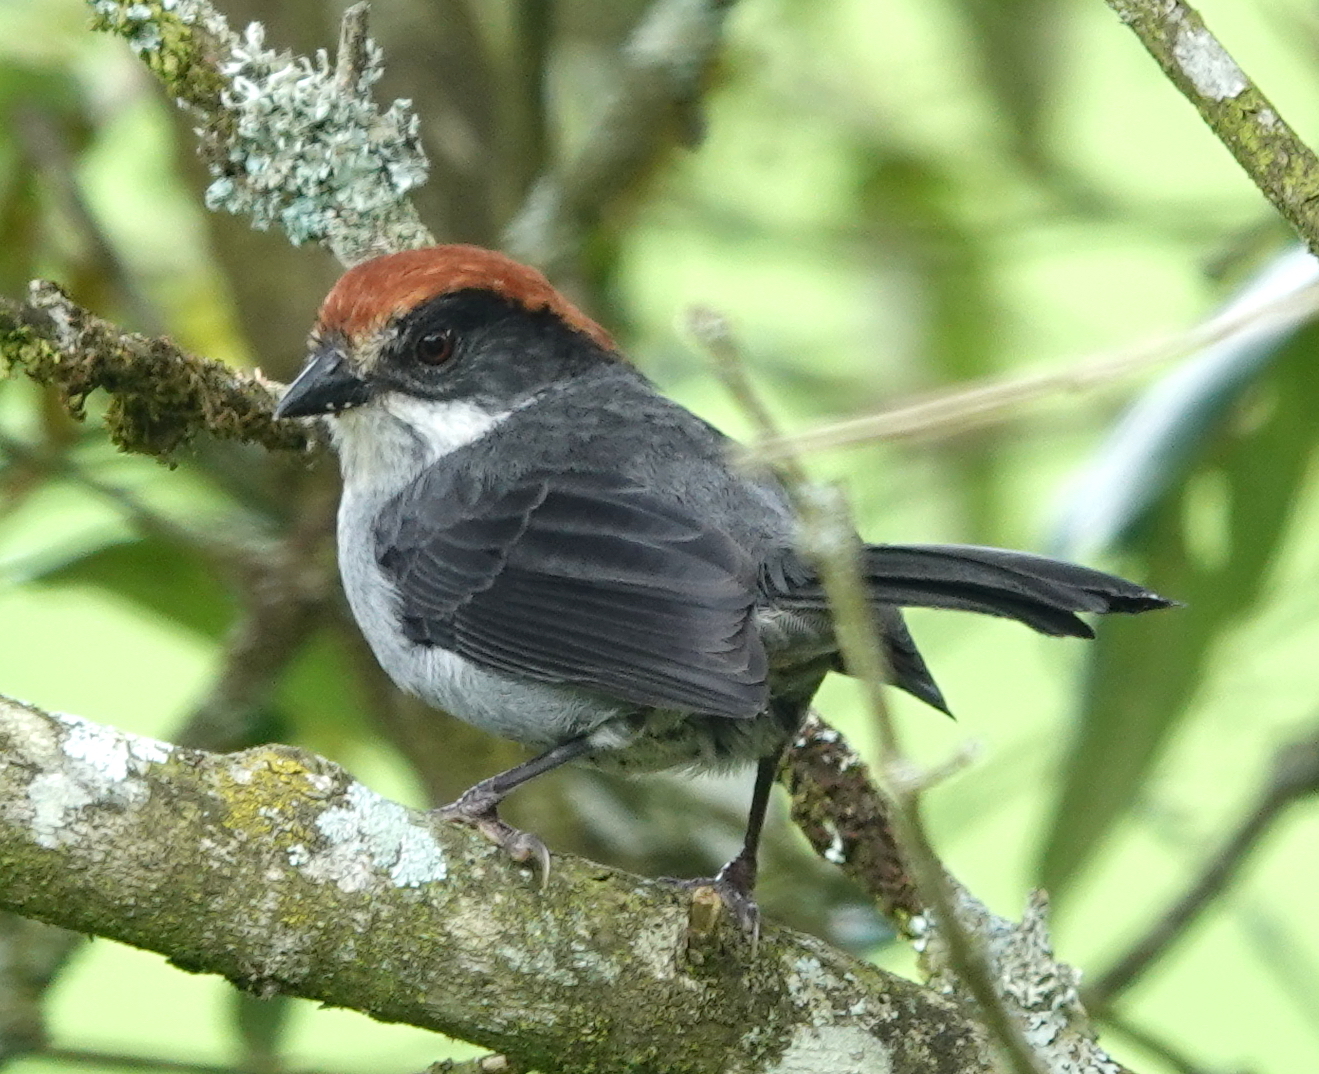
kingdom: Animalia
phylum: Chordata
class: Aves
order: Passeriformes
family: Passerellidae
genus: Atlapetes
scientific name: Atlapetes blancae
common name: Antioquia brush-finch
